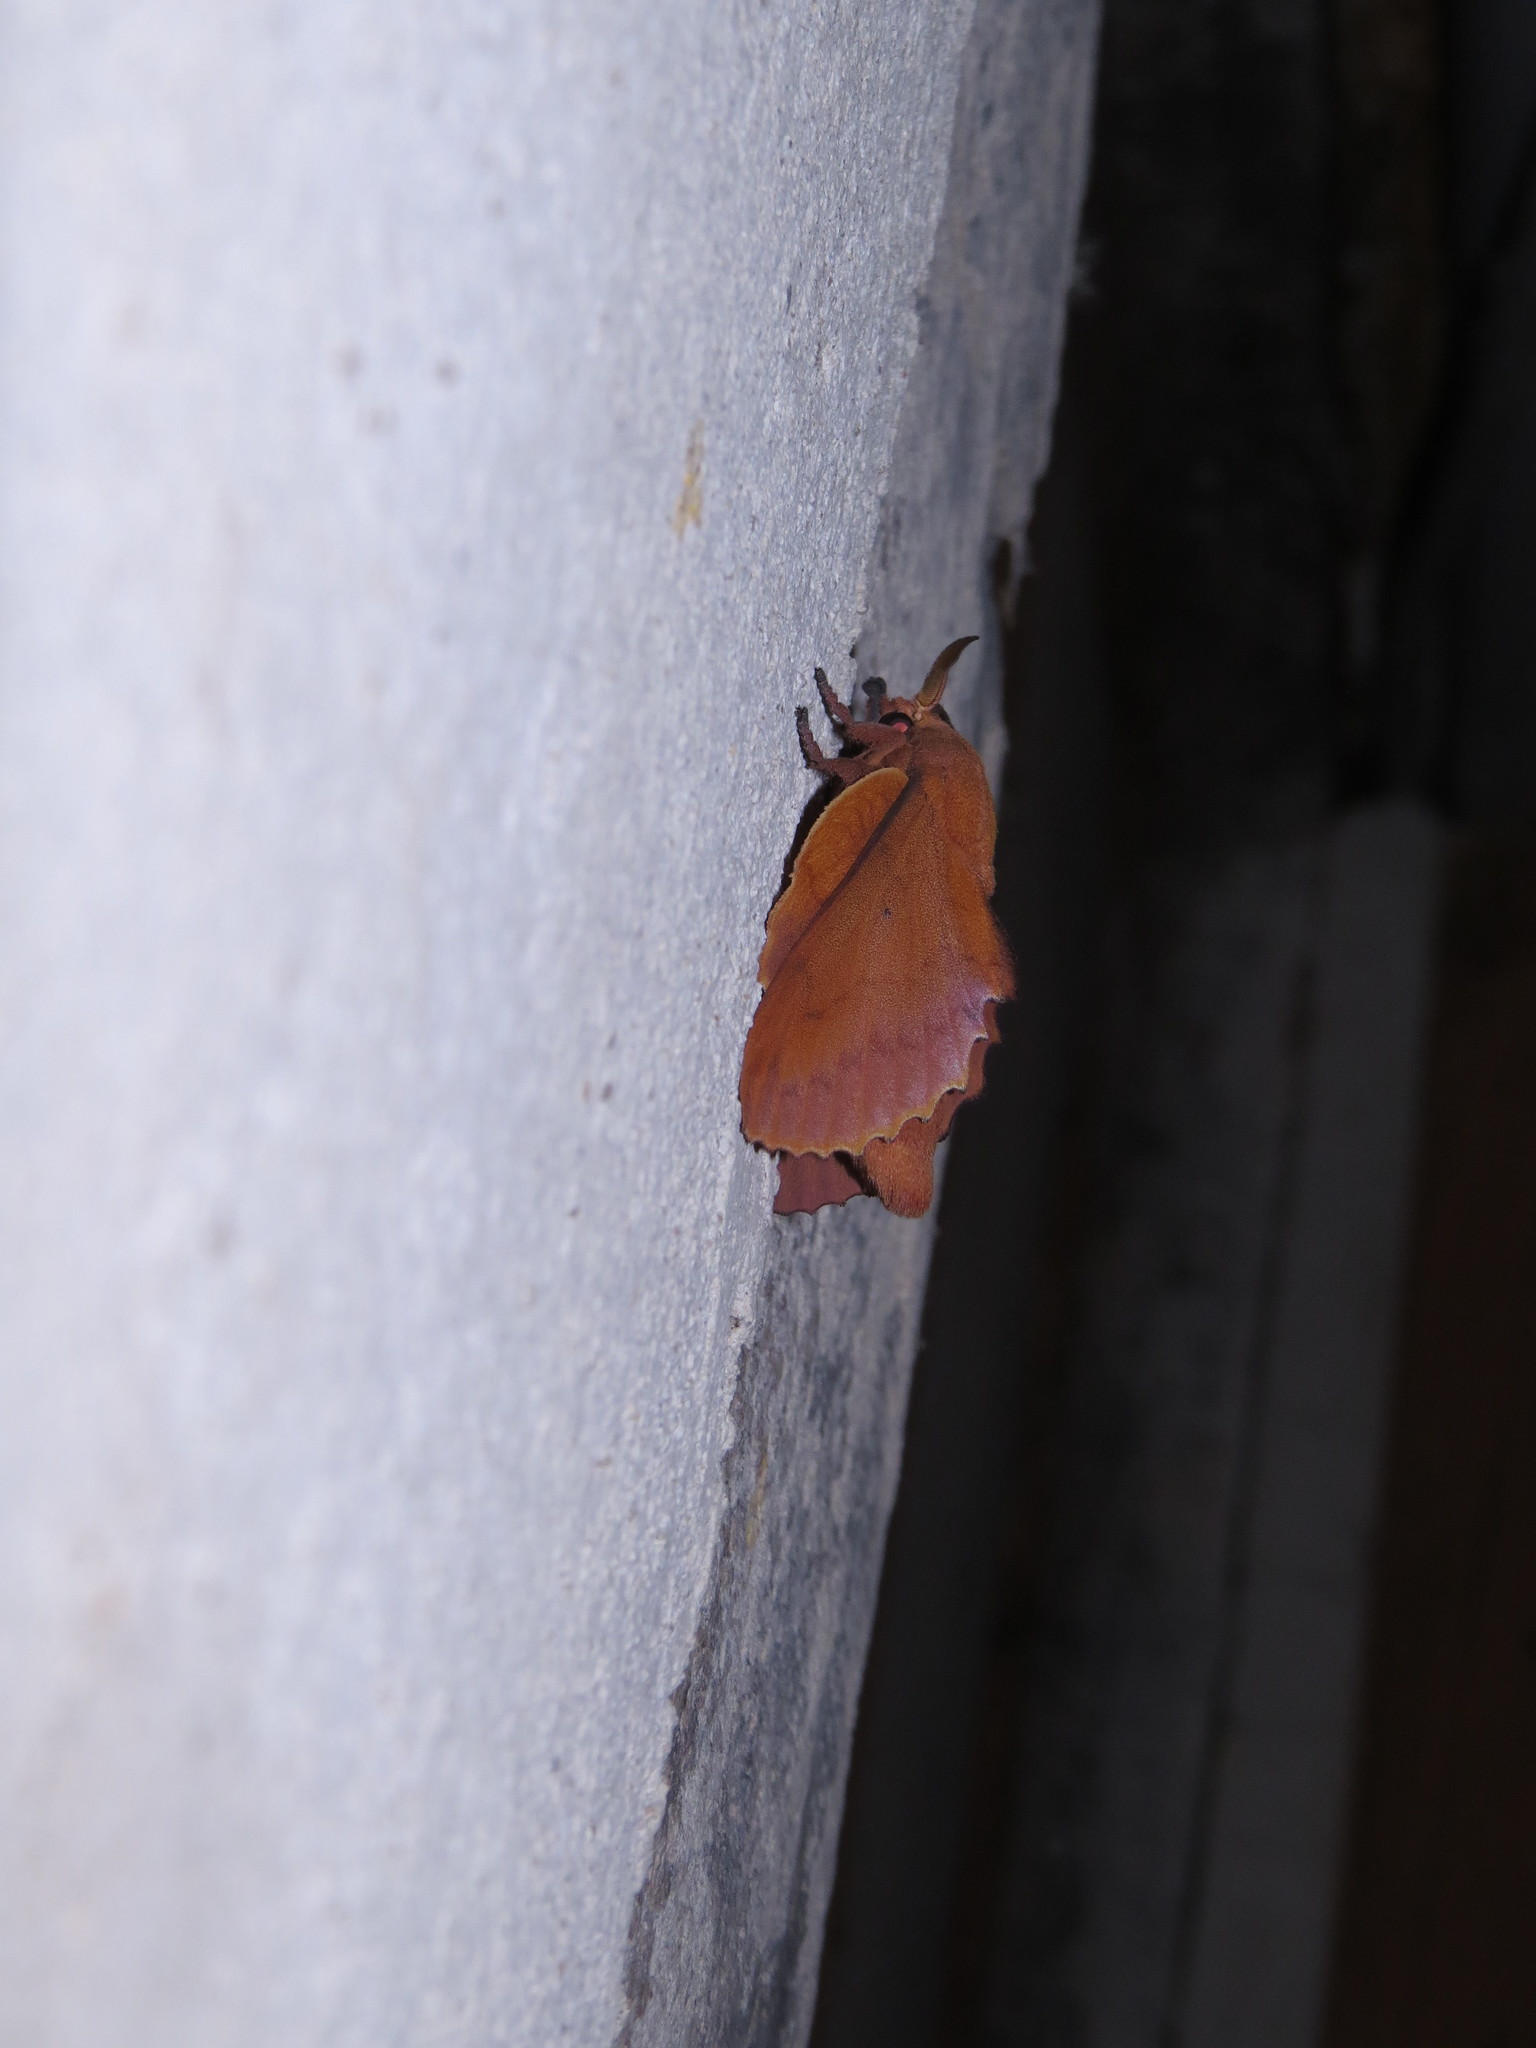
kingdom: Animalia
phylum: Arthropoda
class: Insecta
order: Lepidoptera
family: Lasiocampidae
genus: Gastropacha
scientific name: Gastropacha quercifolia
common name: Lappet
